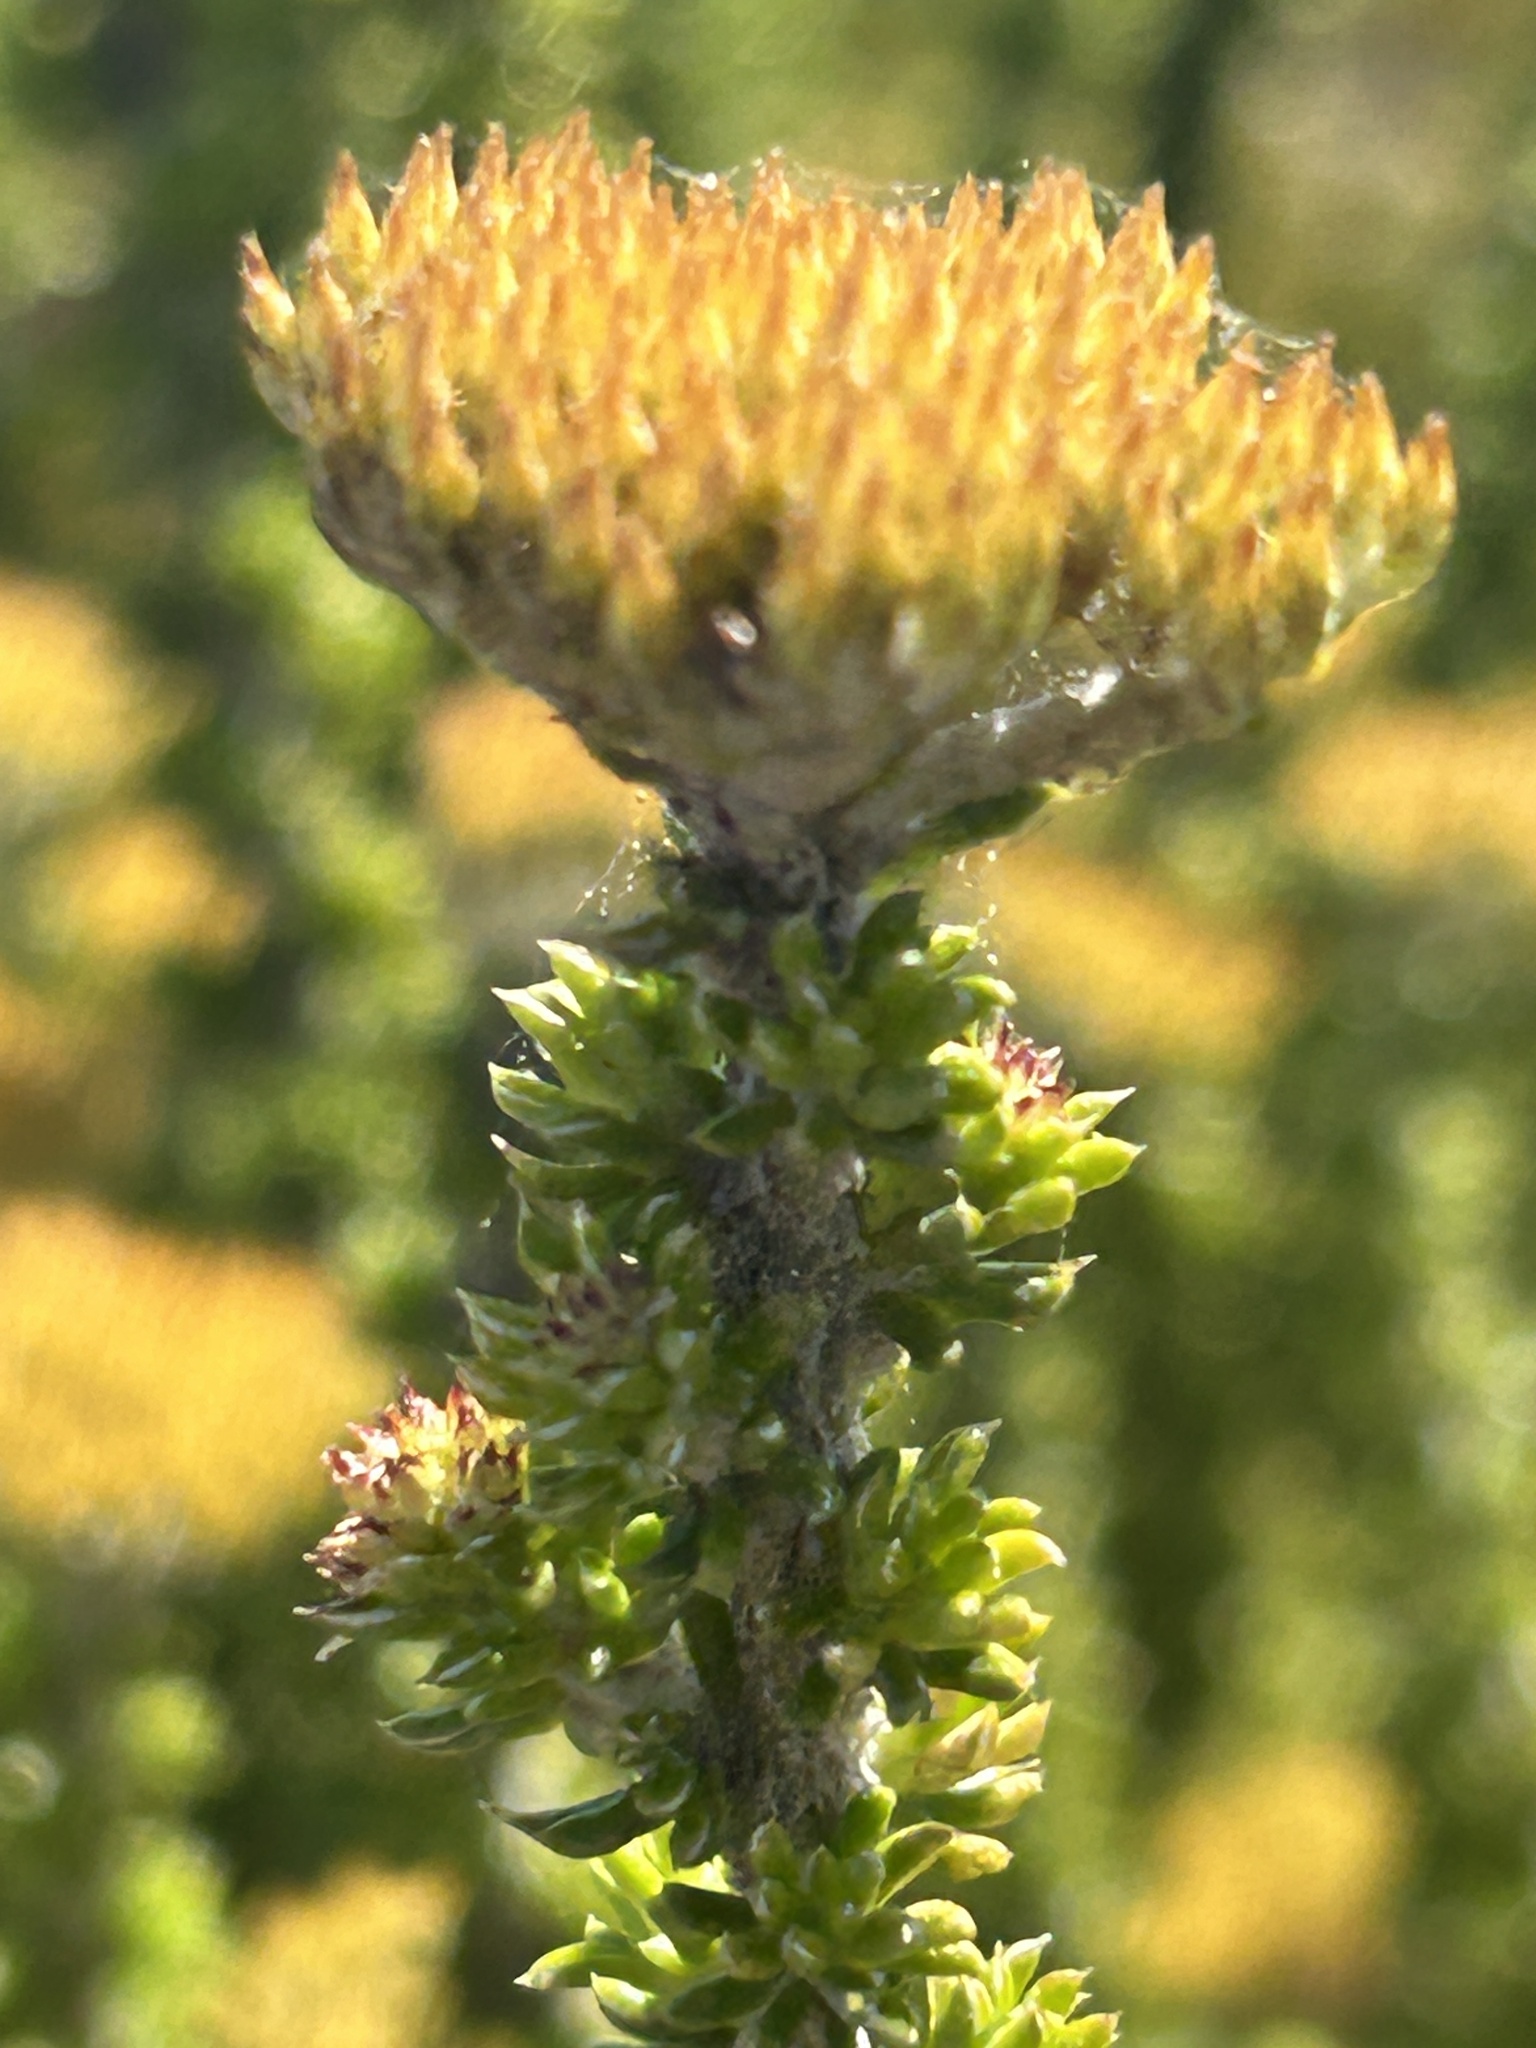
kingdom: Plantae
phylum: Tracheophyta
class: Magnoliopsida
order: Asterales
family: Asteraceae
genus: Metalasia
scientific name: Metalasia luteola
